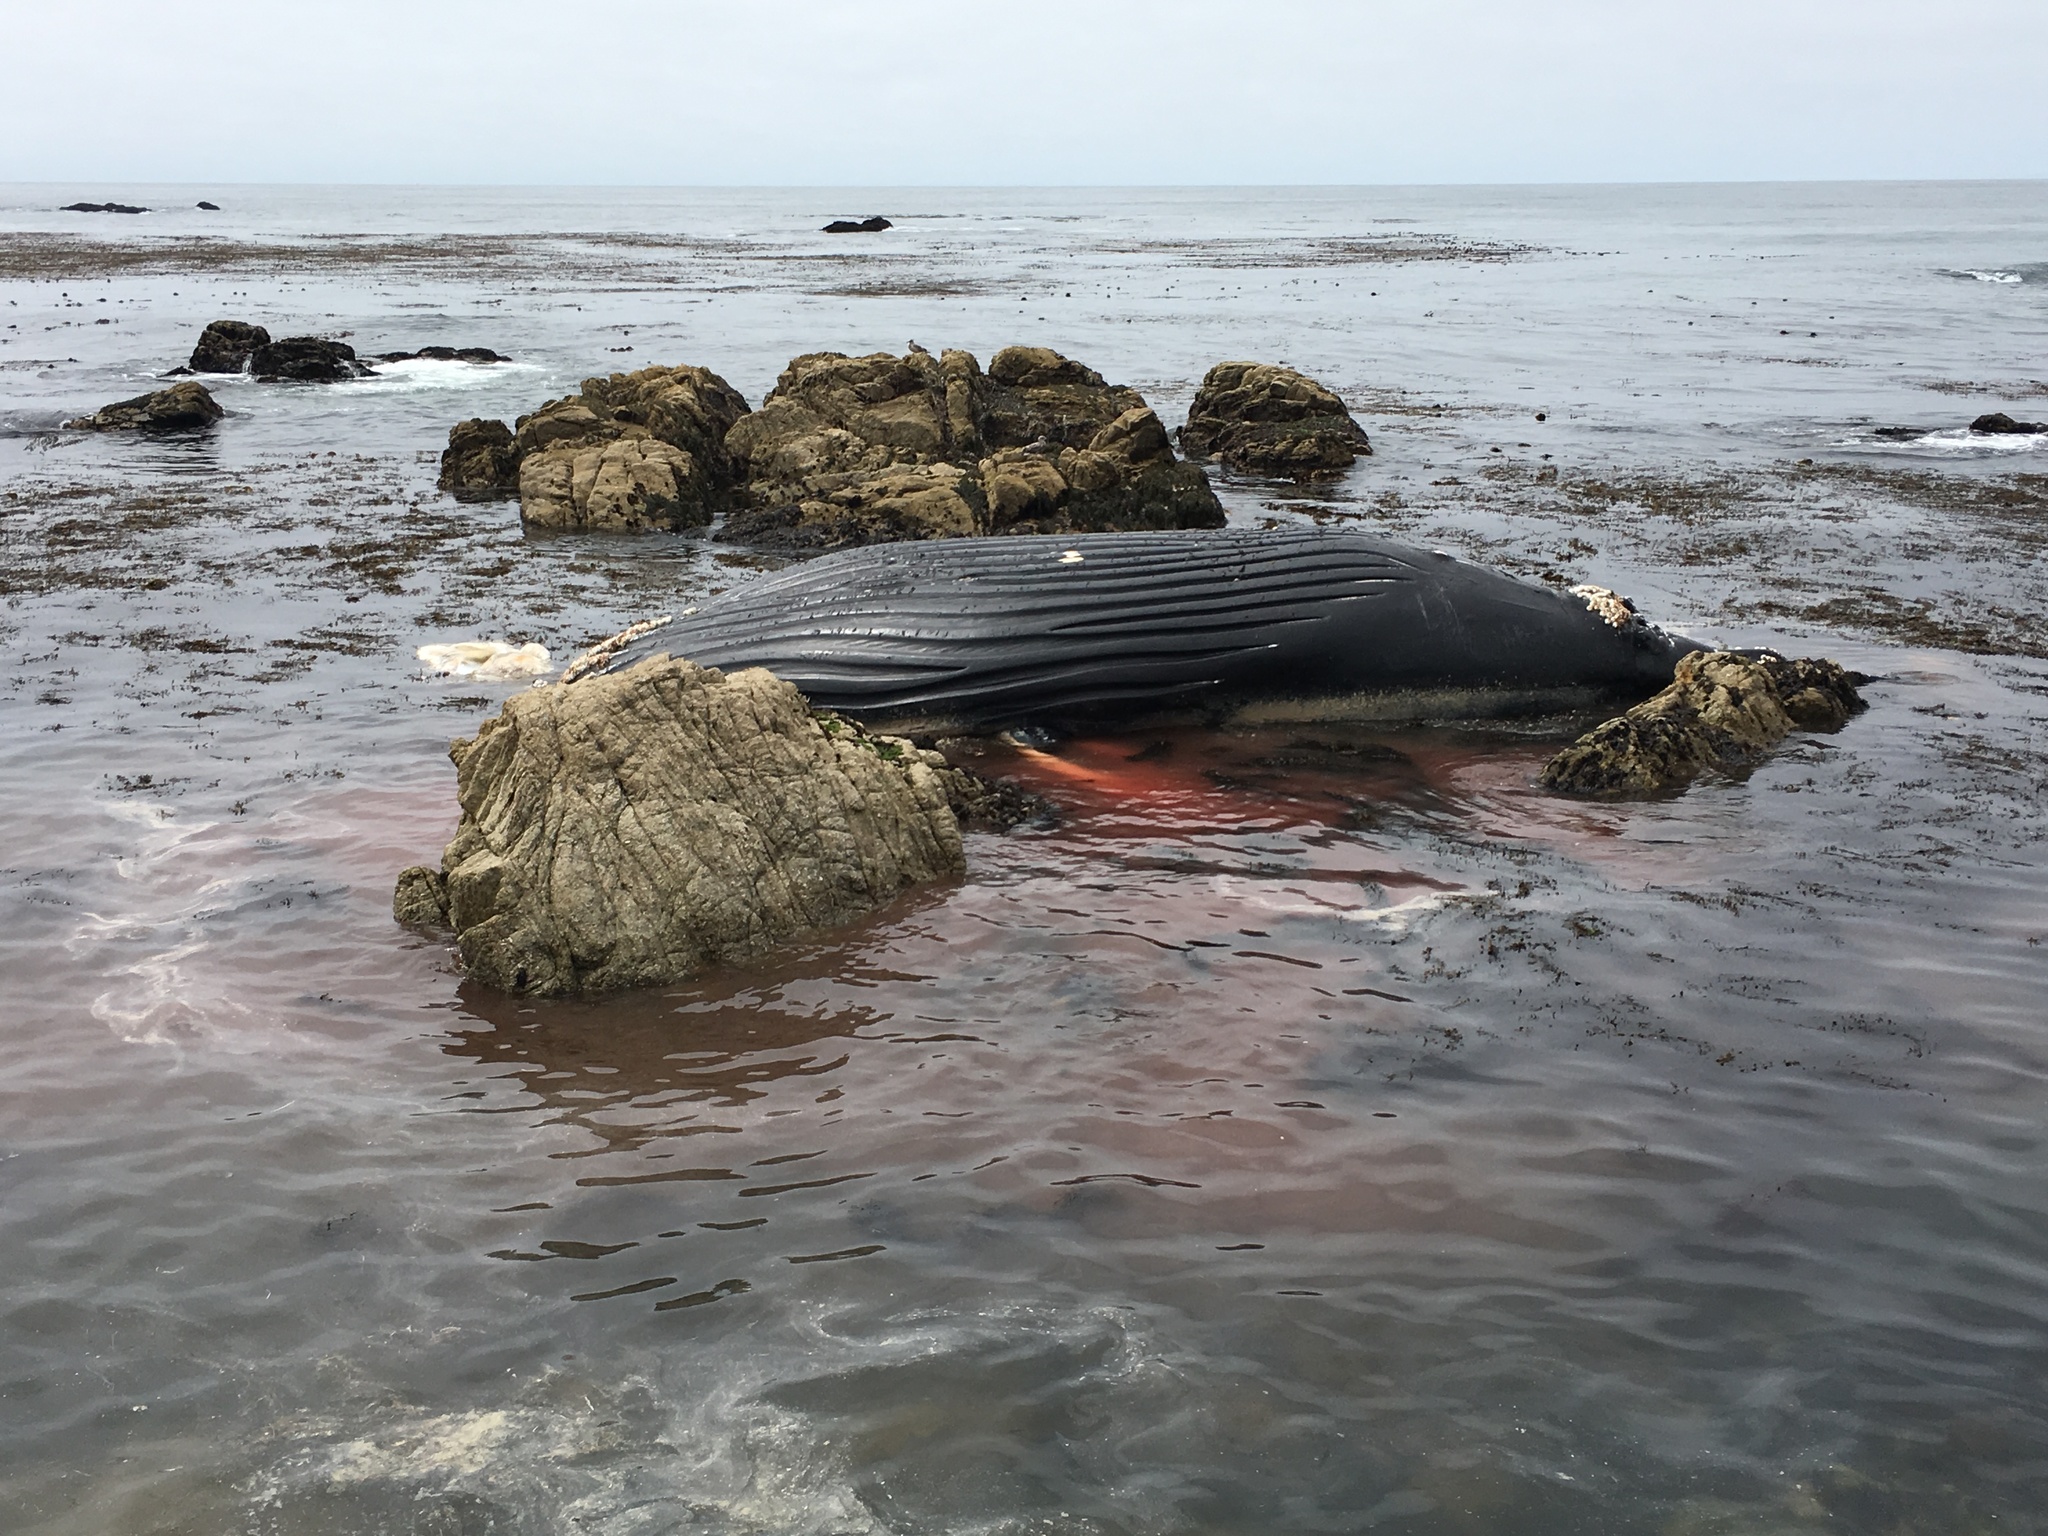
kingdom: Animalia
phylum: Chordata
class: Mammalia
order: Cetacea
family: Balaenopteridae
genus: Megaptera
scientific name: Megaptera novaeangliae
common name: Humpback whale
